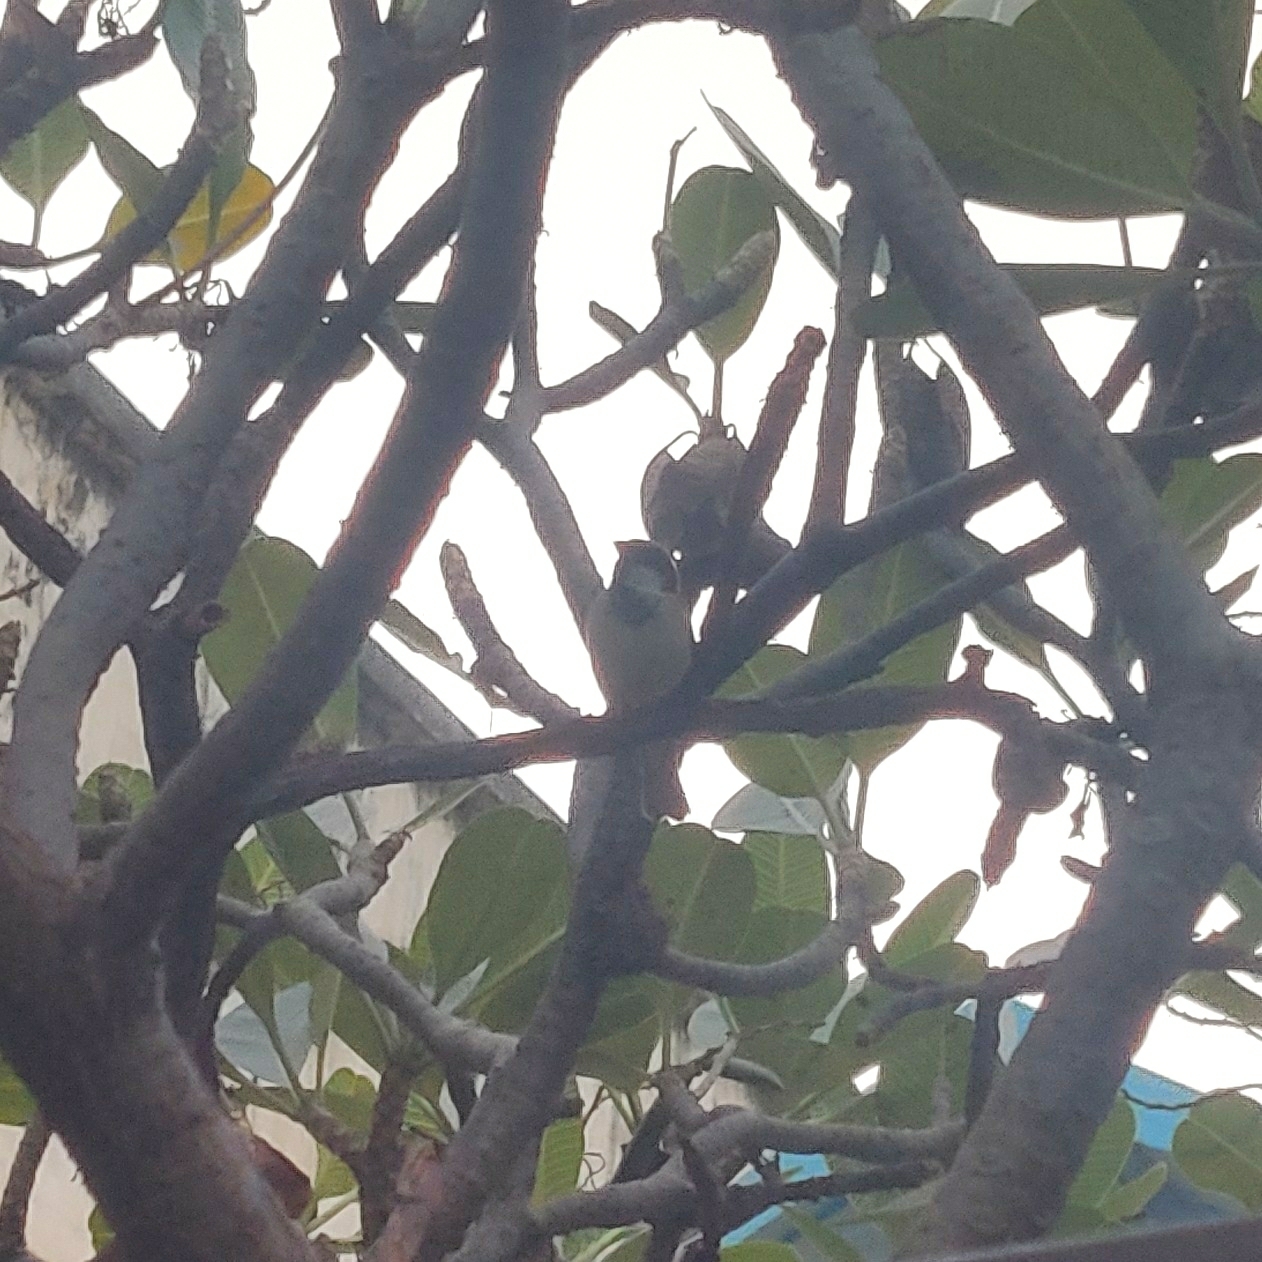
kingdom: Animalia
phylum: Chordata
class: Aves
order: Passeriformes
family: Passeridae
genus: Passer
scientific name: Passer domesticus
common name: House sparrow
